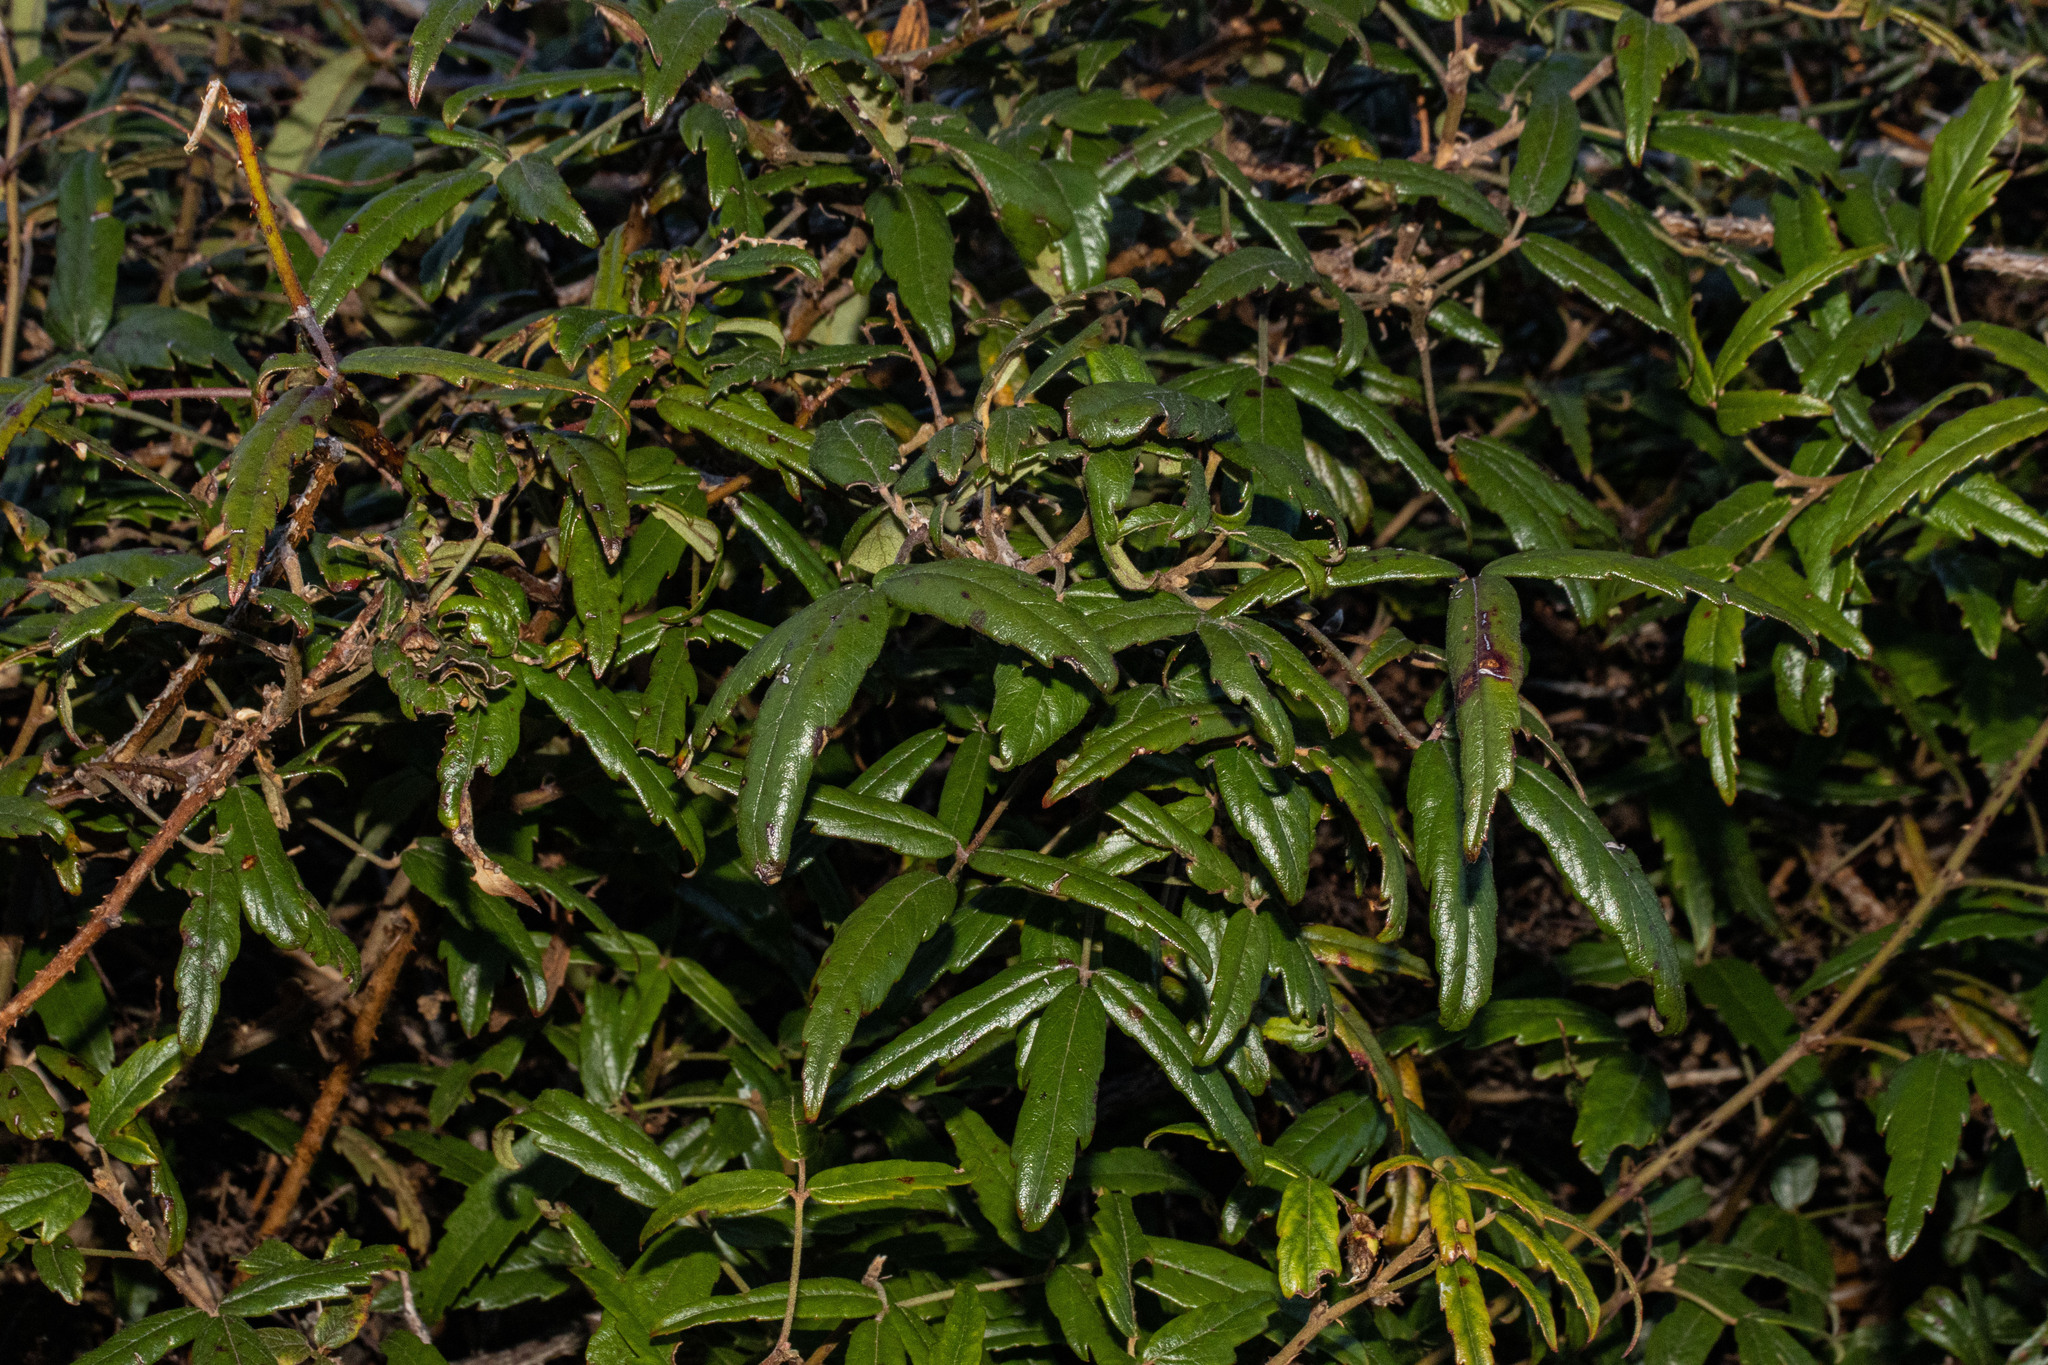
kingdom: Plantae
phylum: Tracheophyta
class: Magnoliopsida
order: Rosales
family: Rosaceae
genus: Rubus
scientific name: Rubus cissoides
